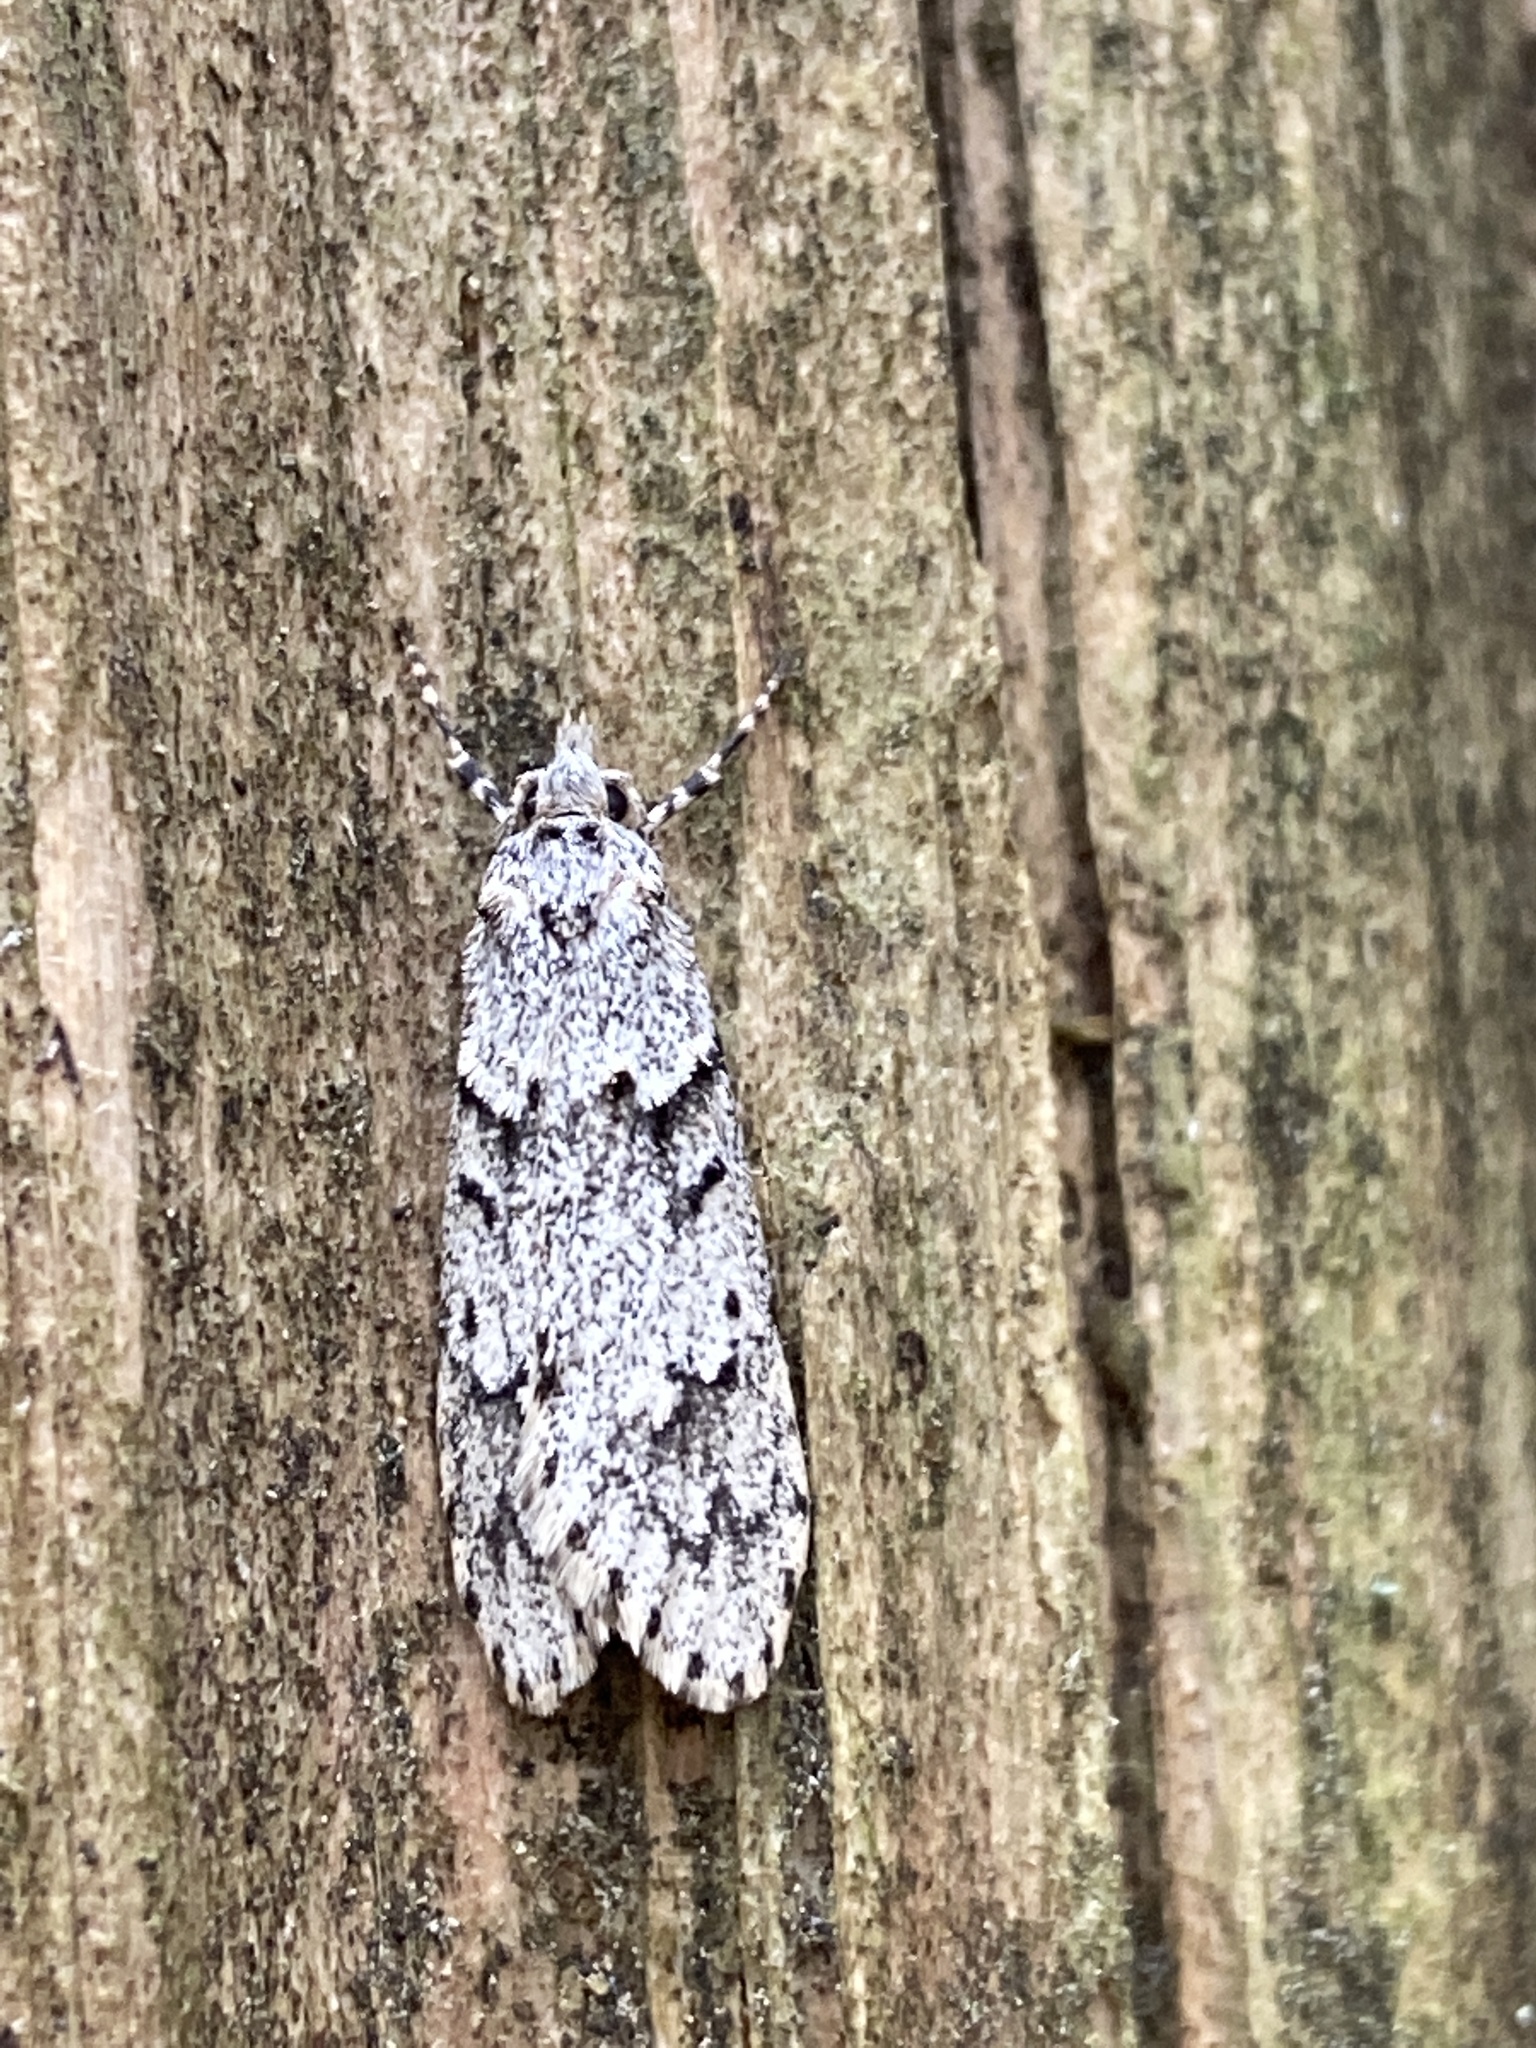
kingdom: Animalia
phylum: Arthropoda
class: Insecta
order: Lepidoptera
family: Lypusidae
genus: Diurnea
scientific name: Diurnea fagella
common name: March tubic
